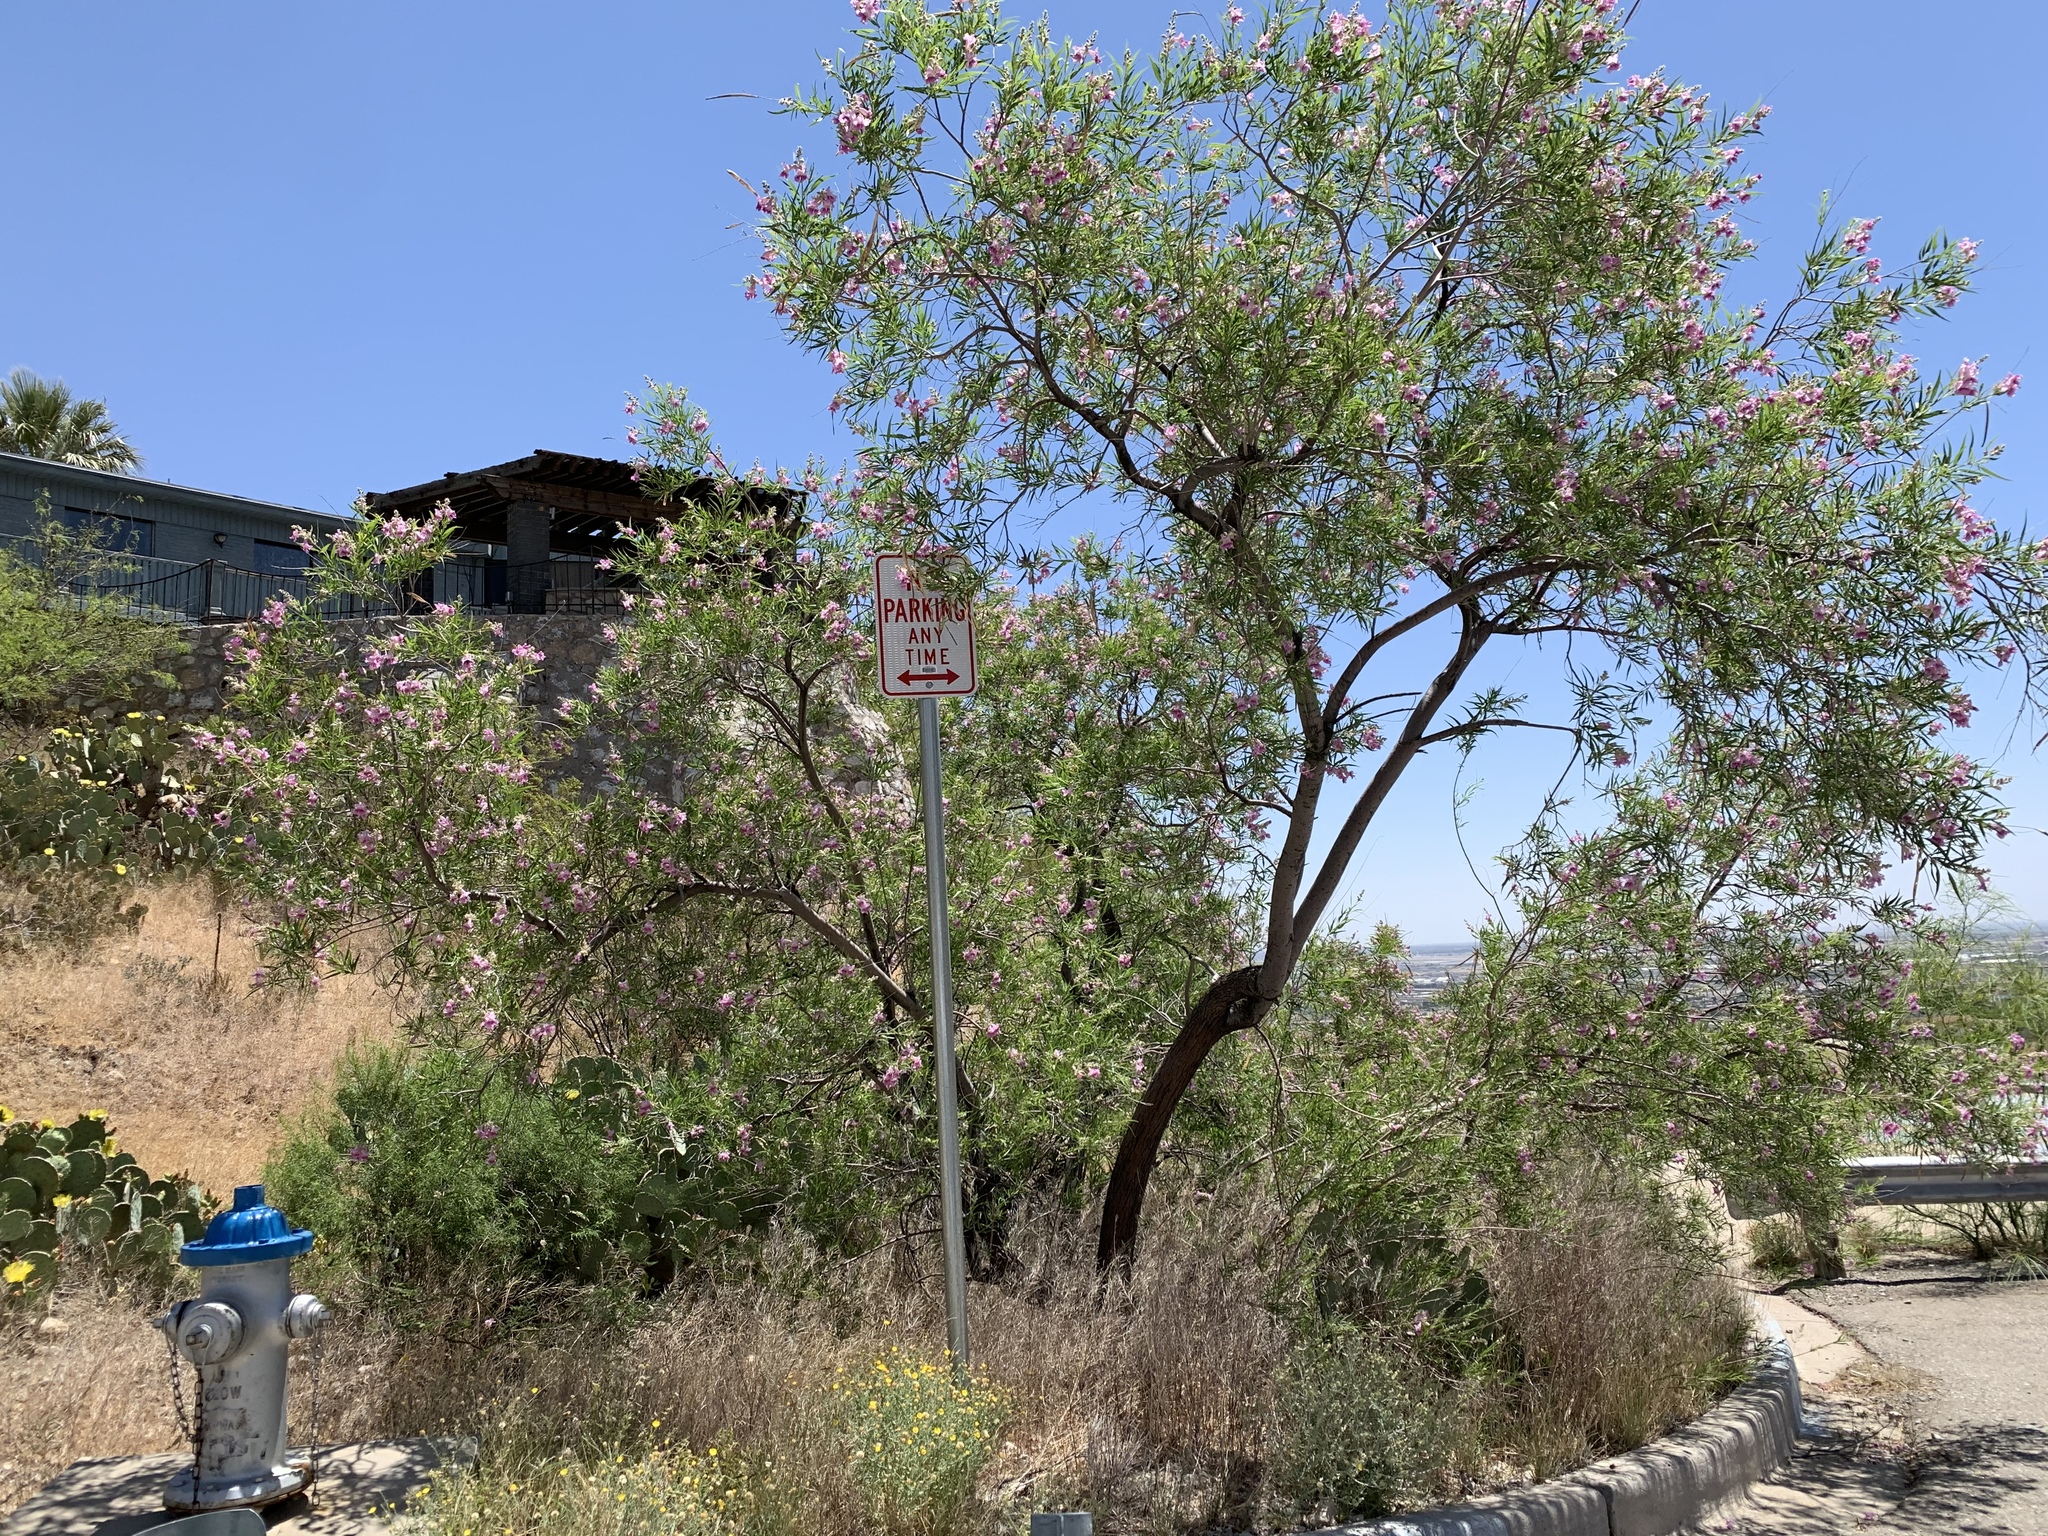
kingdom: Plantae
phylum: Tracheophyta
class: Magnoliopsida
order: Lamiales
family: Bignoniaceae
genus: Chilopsis
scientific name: Chilopsis linearis
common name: Desert-willow
